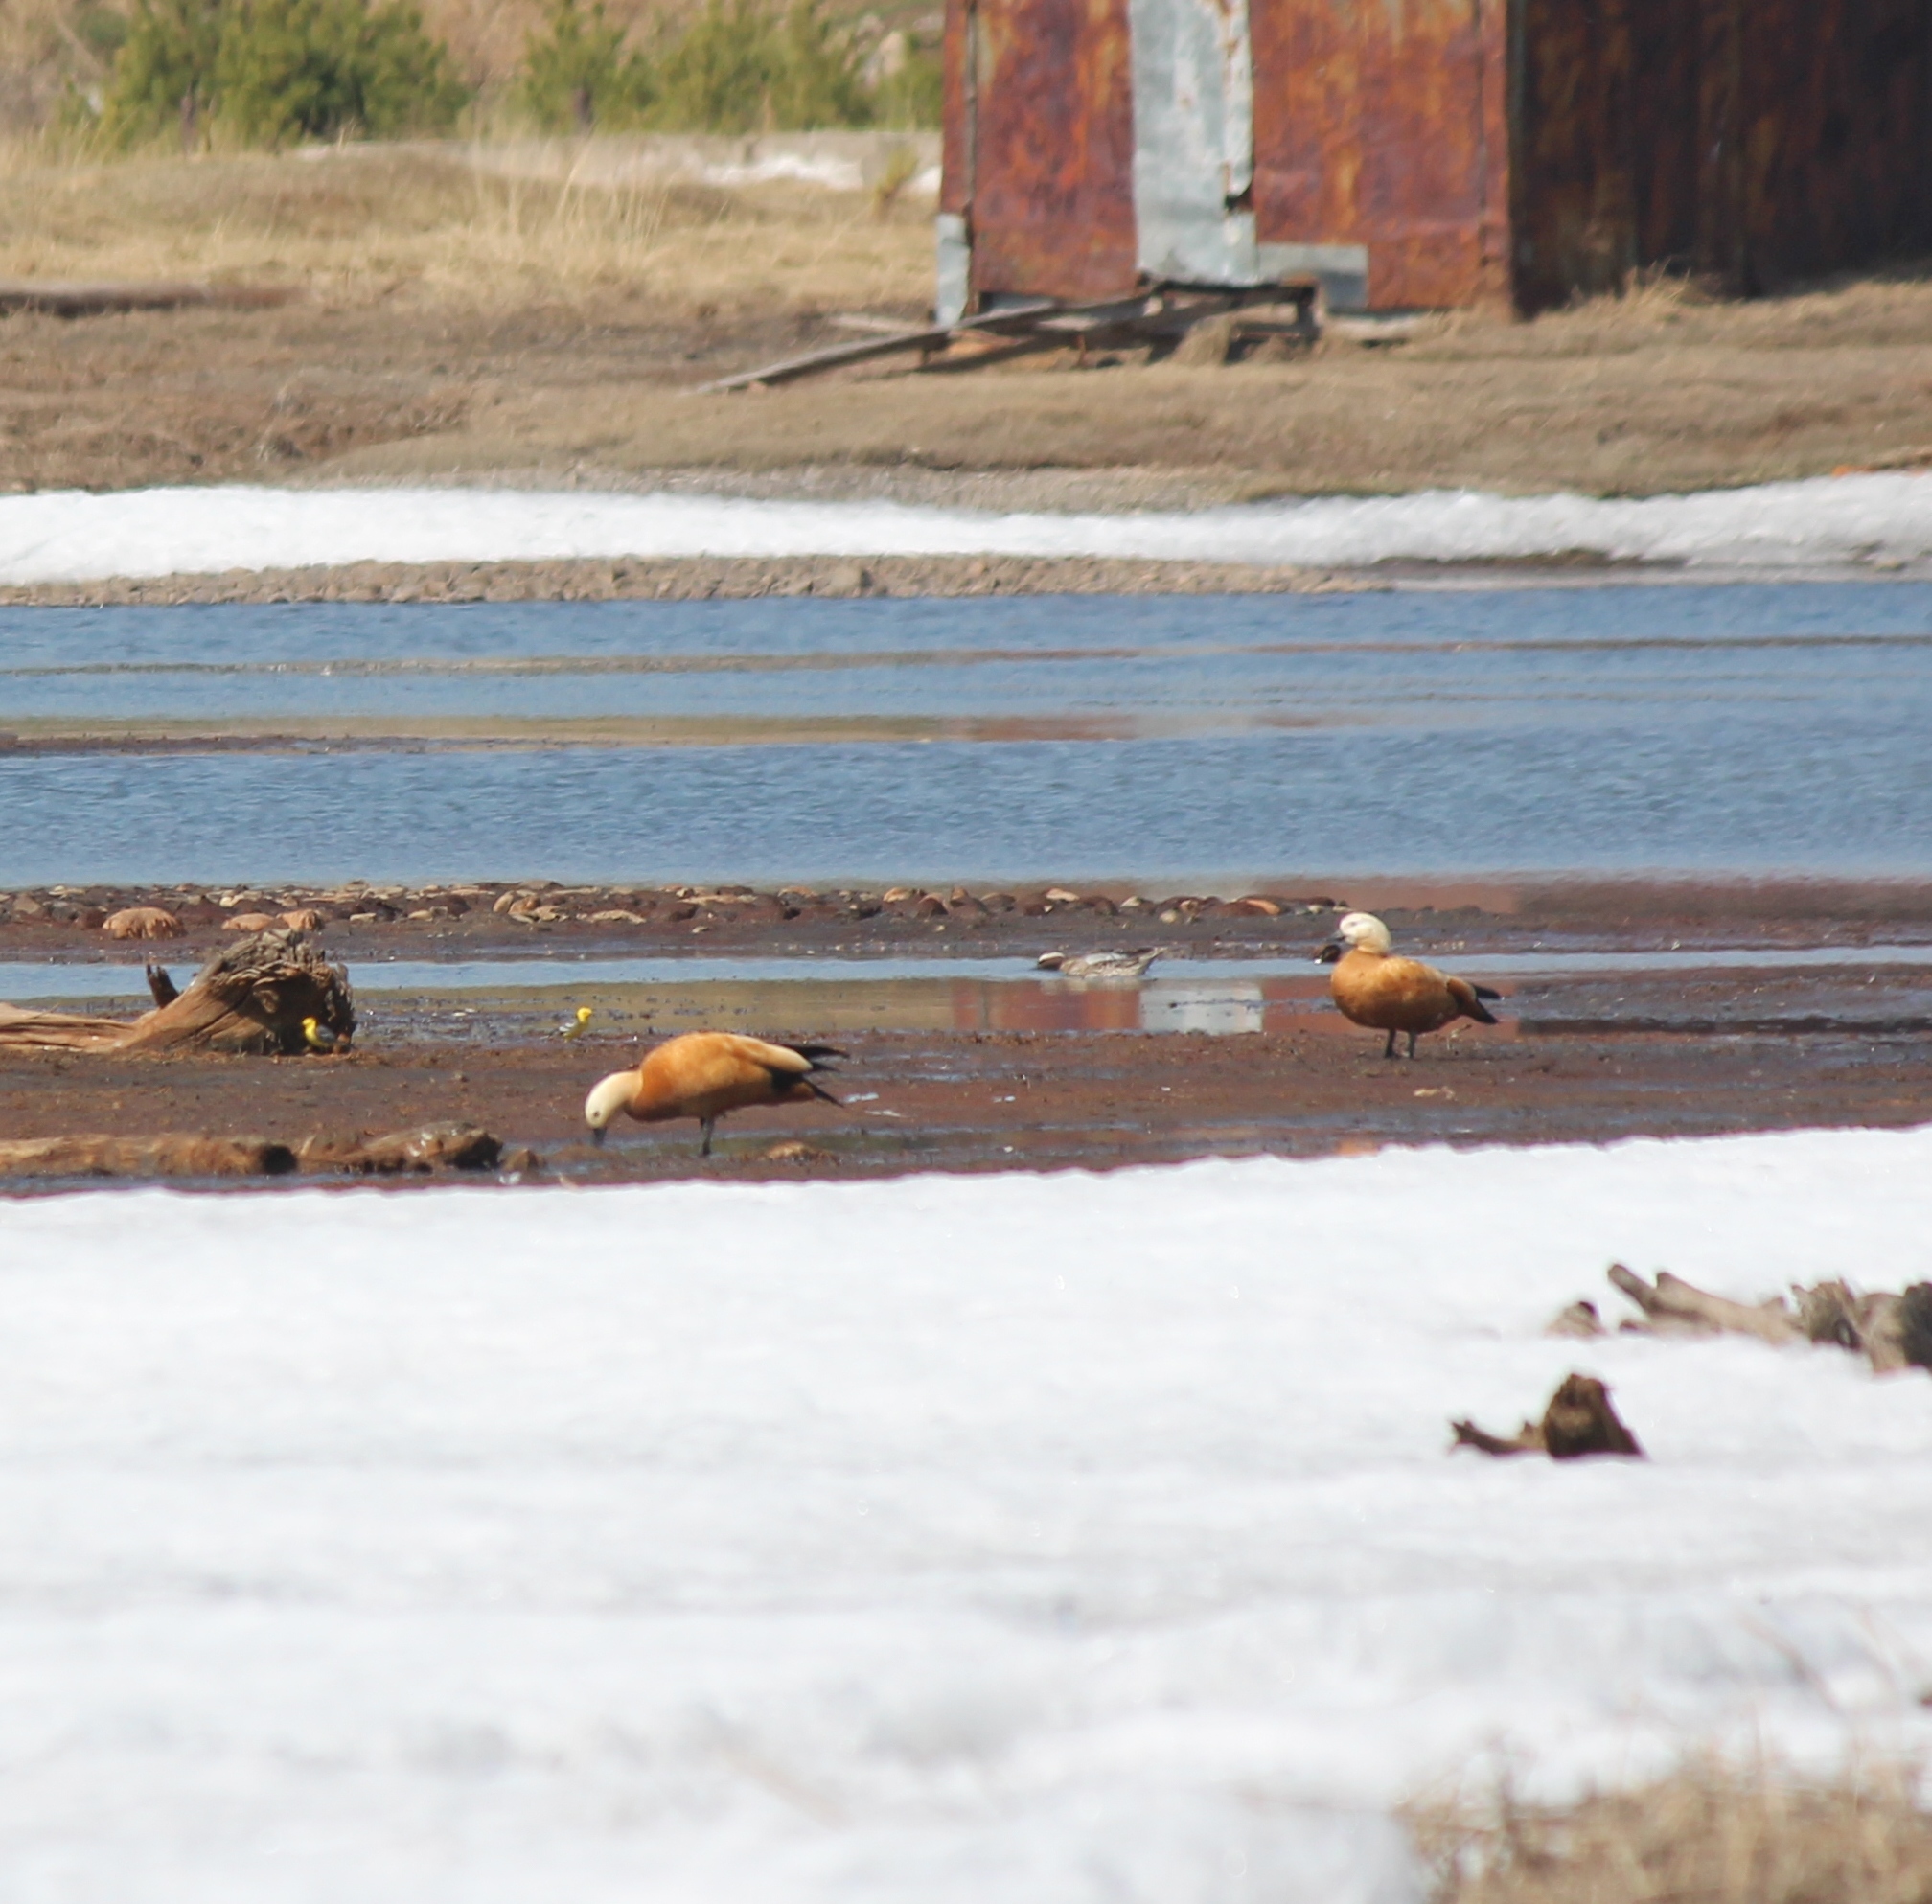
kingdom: Animalia
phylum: Chordata
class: Aves
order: Anseriformes
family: Anatidae
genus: Tadorna
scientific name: Tadorna ferruginea
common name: Ruddy shelduck
